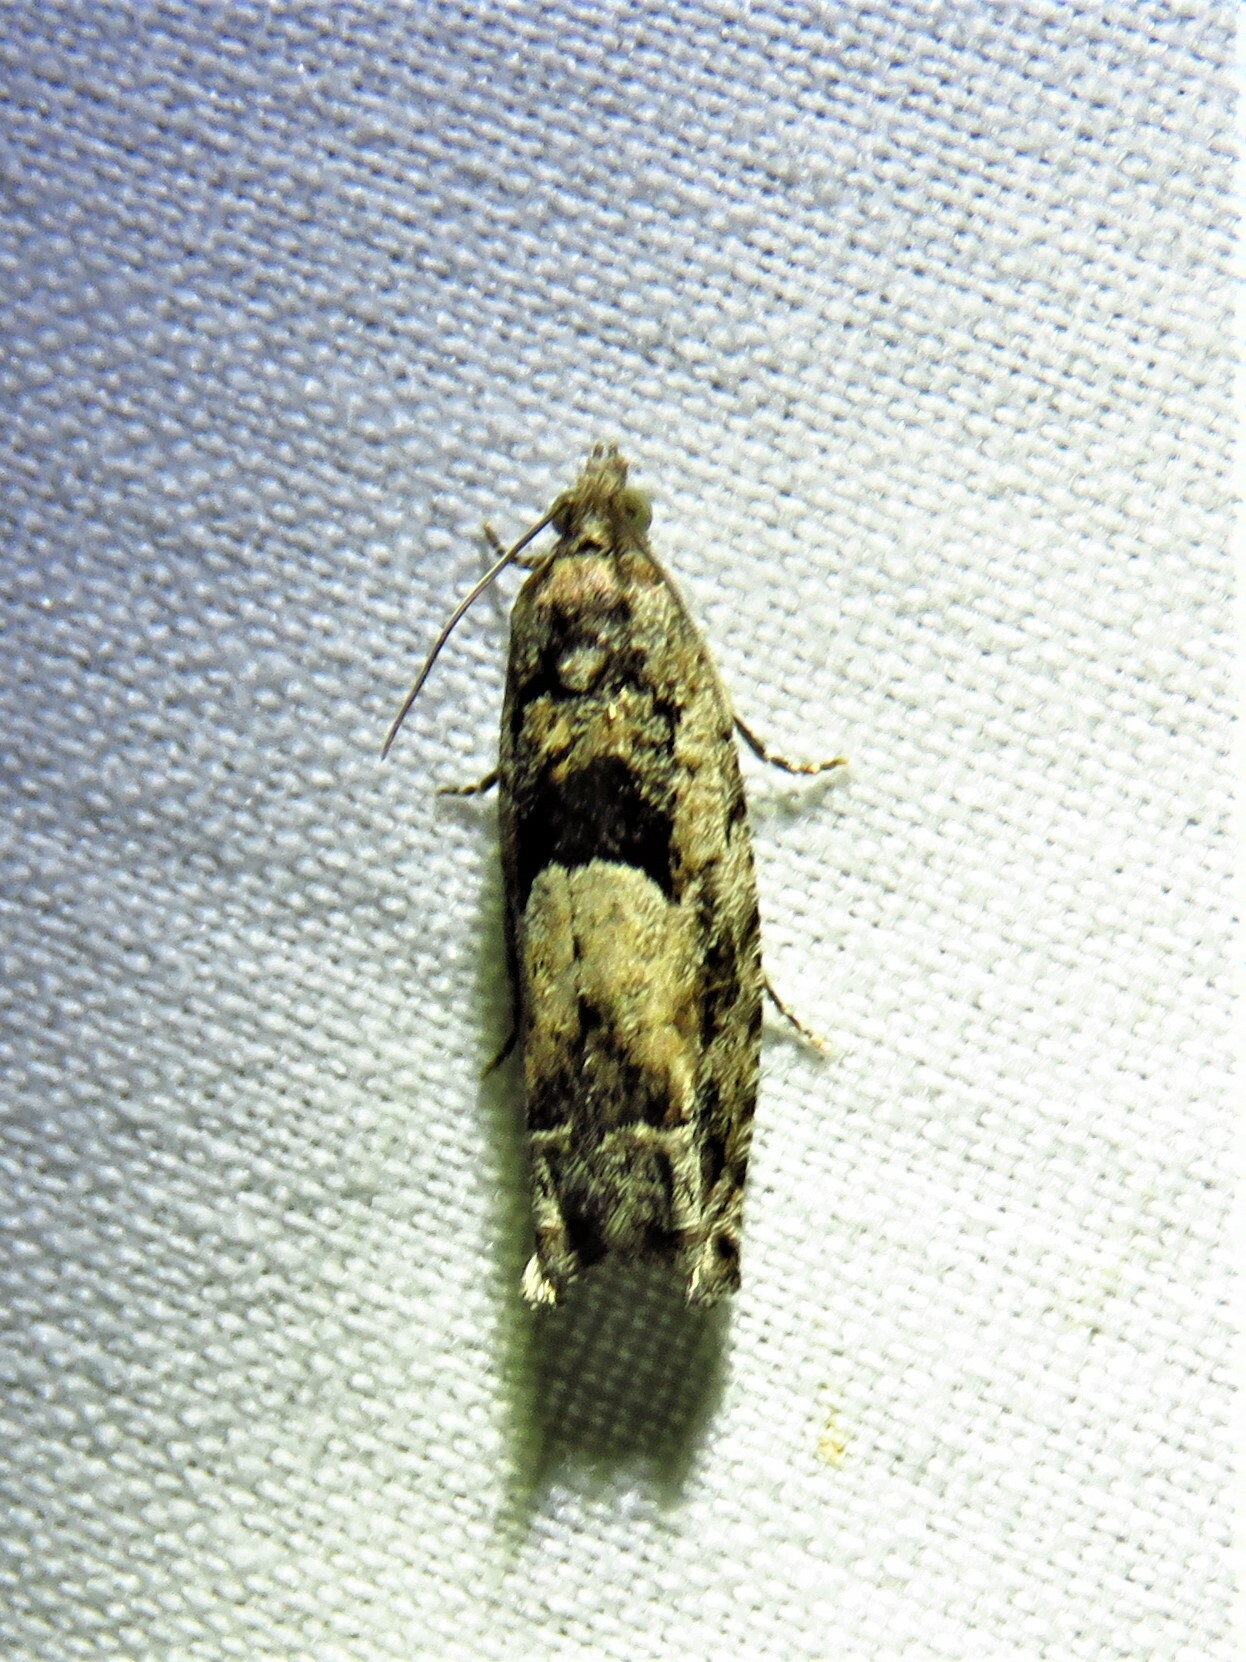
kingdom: Animalia
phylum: Arthropoda
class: Insecta
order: Lepidoptera
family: Tortricidae
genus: Pseudexentera
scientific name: Pseudexentera hodsoni
